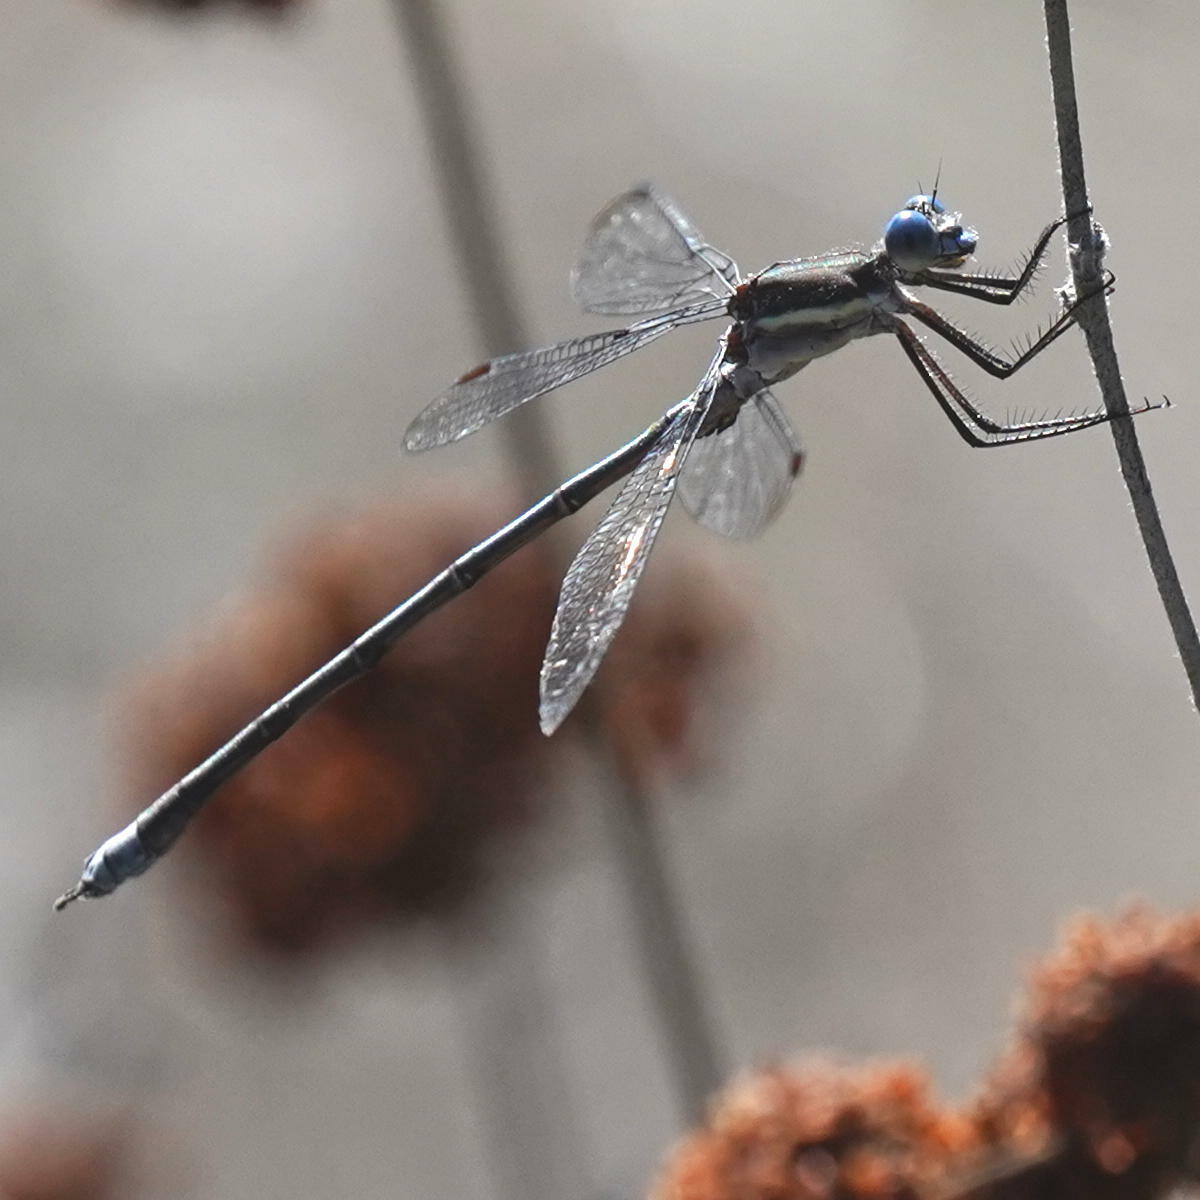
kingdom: Animalia
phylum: Arthropoda
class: Insecta
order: Odonata
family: Lestidae
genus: Archilestes
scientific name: Archilestes grandis
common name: Great spreadwing
